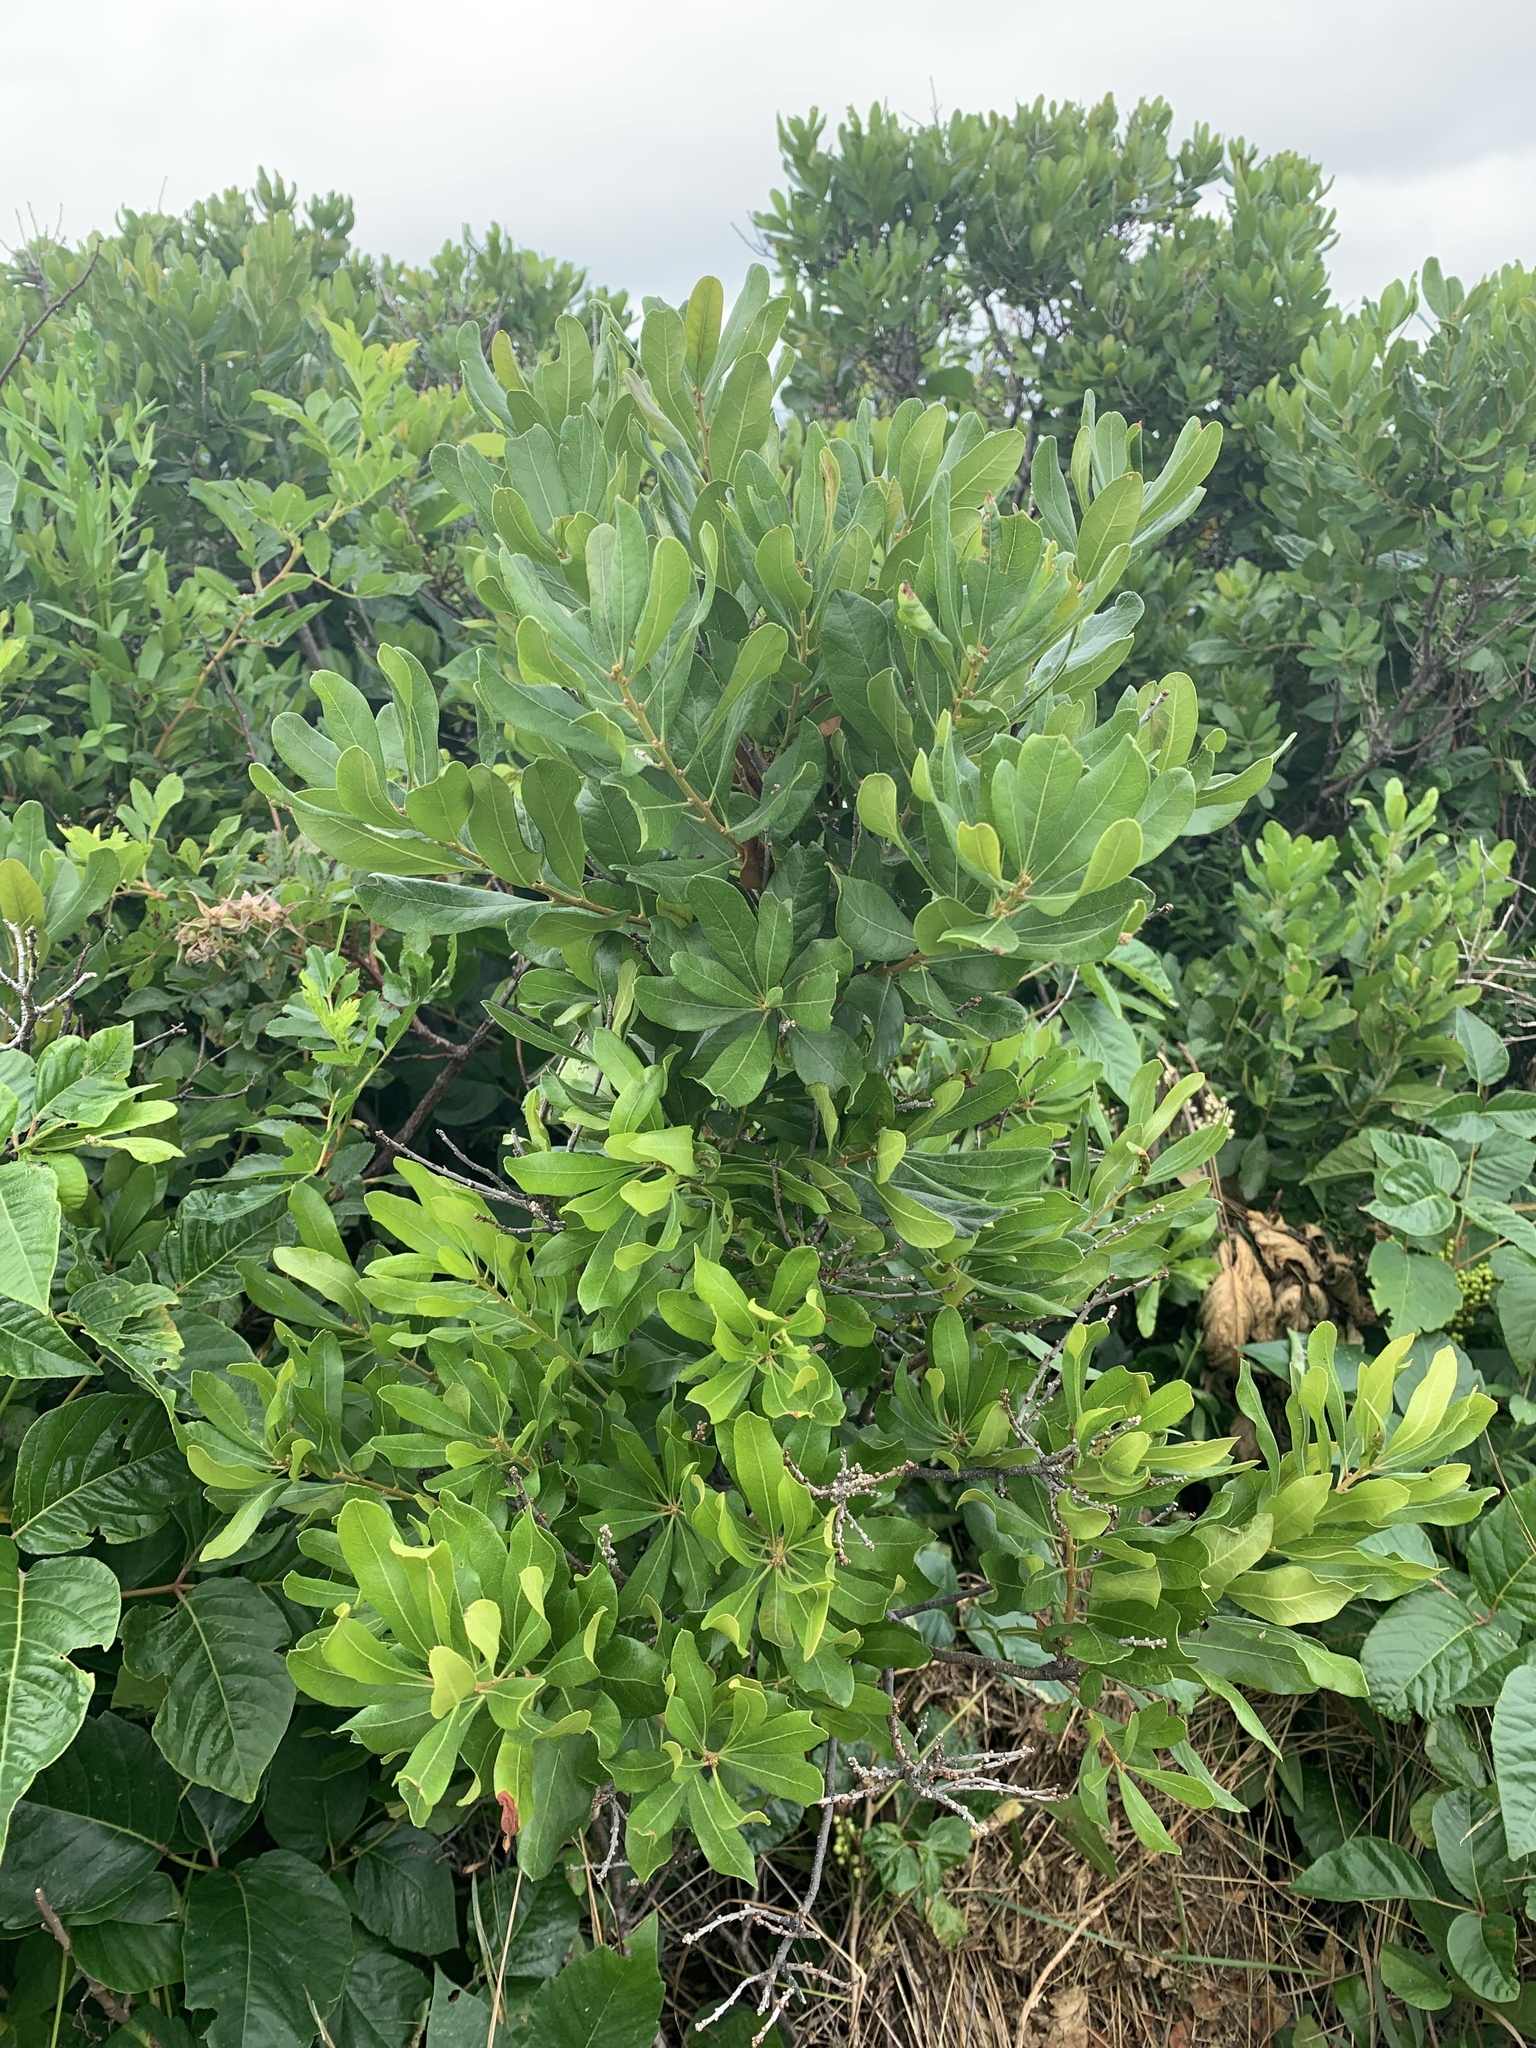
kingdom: Plantae
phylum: Tracheophyta
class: Magnoliopsida
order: Fagales
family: Myricaceae
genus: Morella
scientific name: Morella pensylvanica
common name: Northern bayberry
